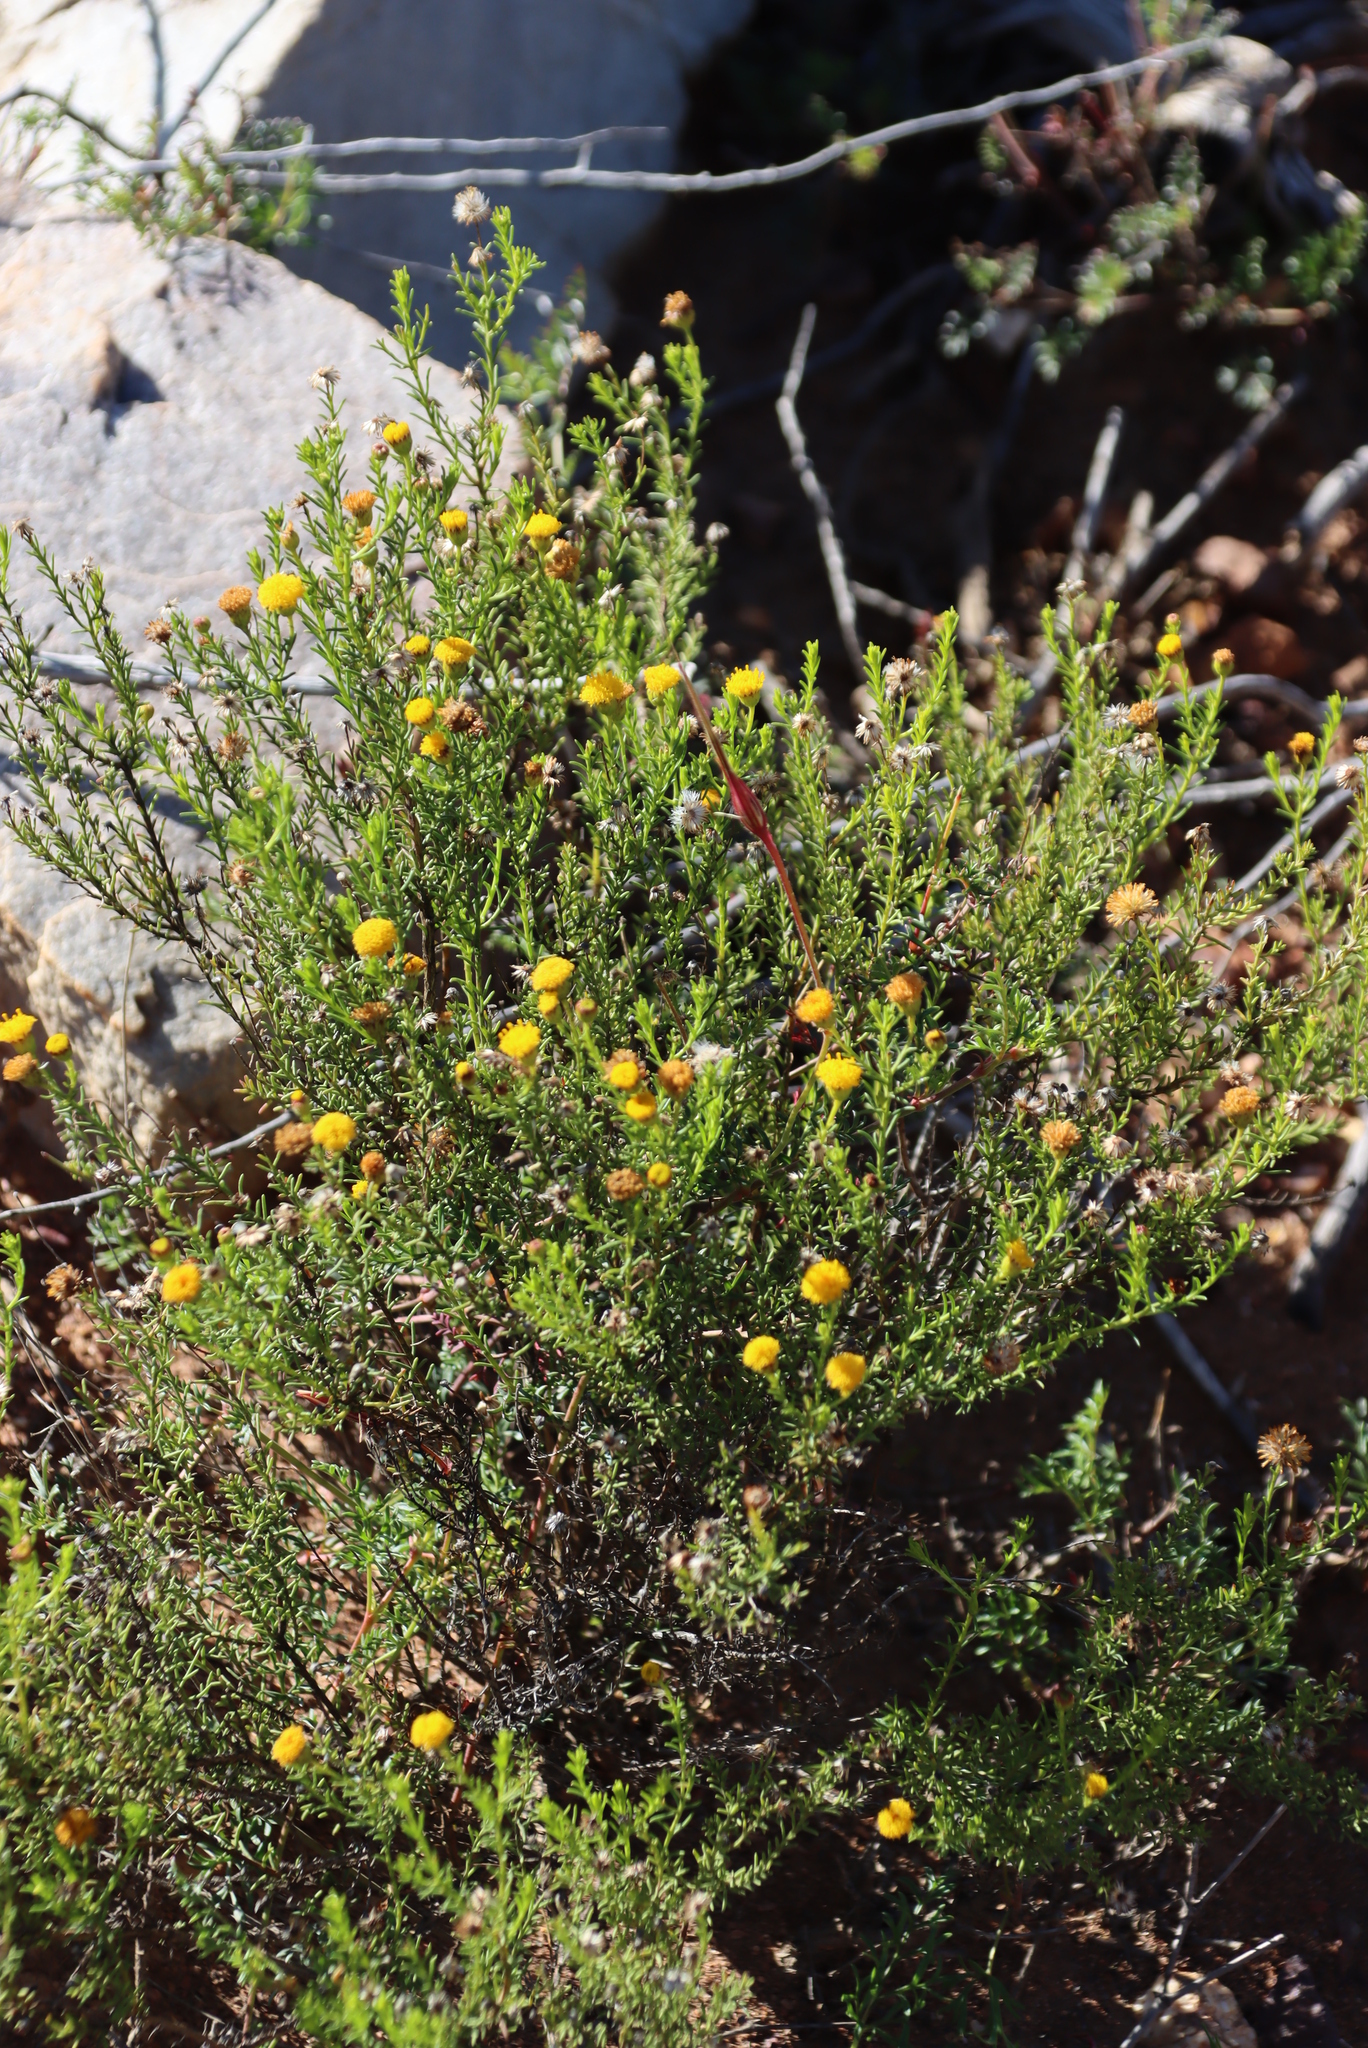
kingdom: Plantae
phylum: Tracheophyta
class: Magnoliopsida
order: Asterales
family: Asteraceae
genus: Chrysocoma
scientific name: Chrysocoma ciliata
